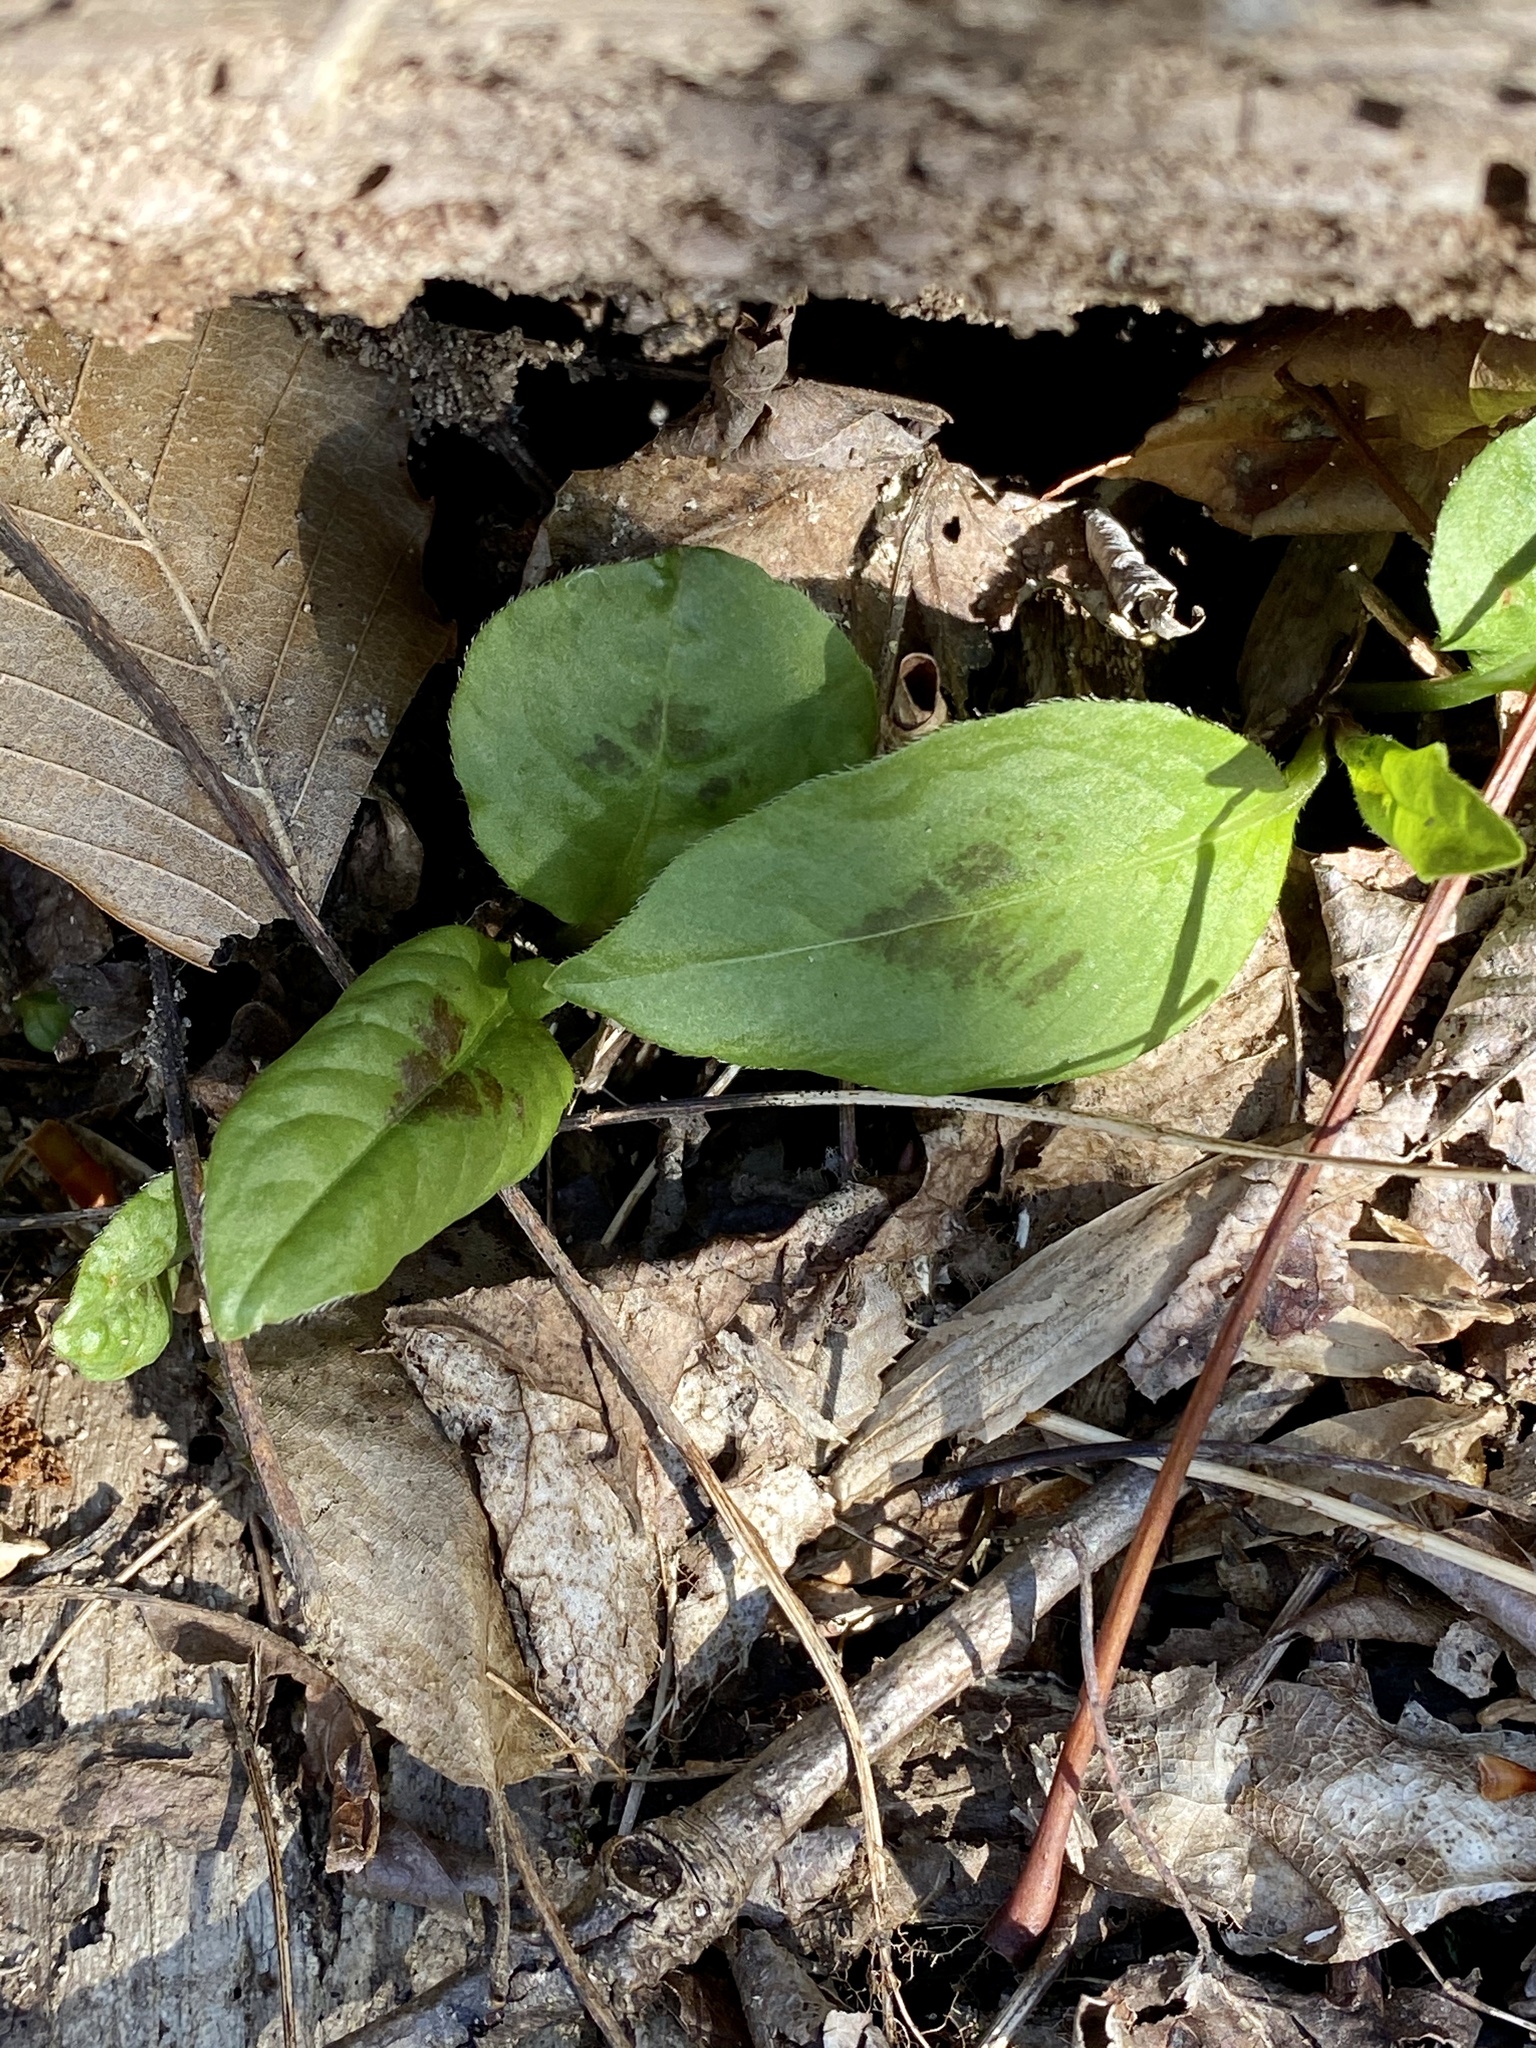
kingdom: Plantae
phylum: Tracheophyta
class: Magnoliopsida
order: Caryophyllales
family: Polygonaceae
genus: Persicaria
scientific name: Persicaria virginiana
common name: Jumpseed
